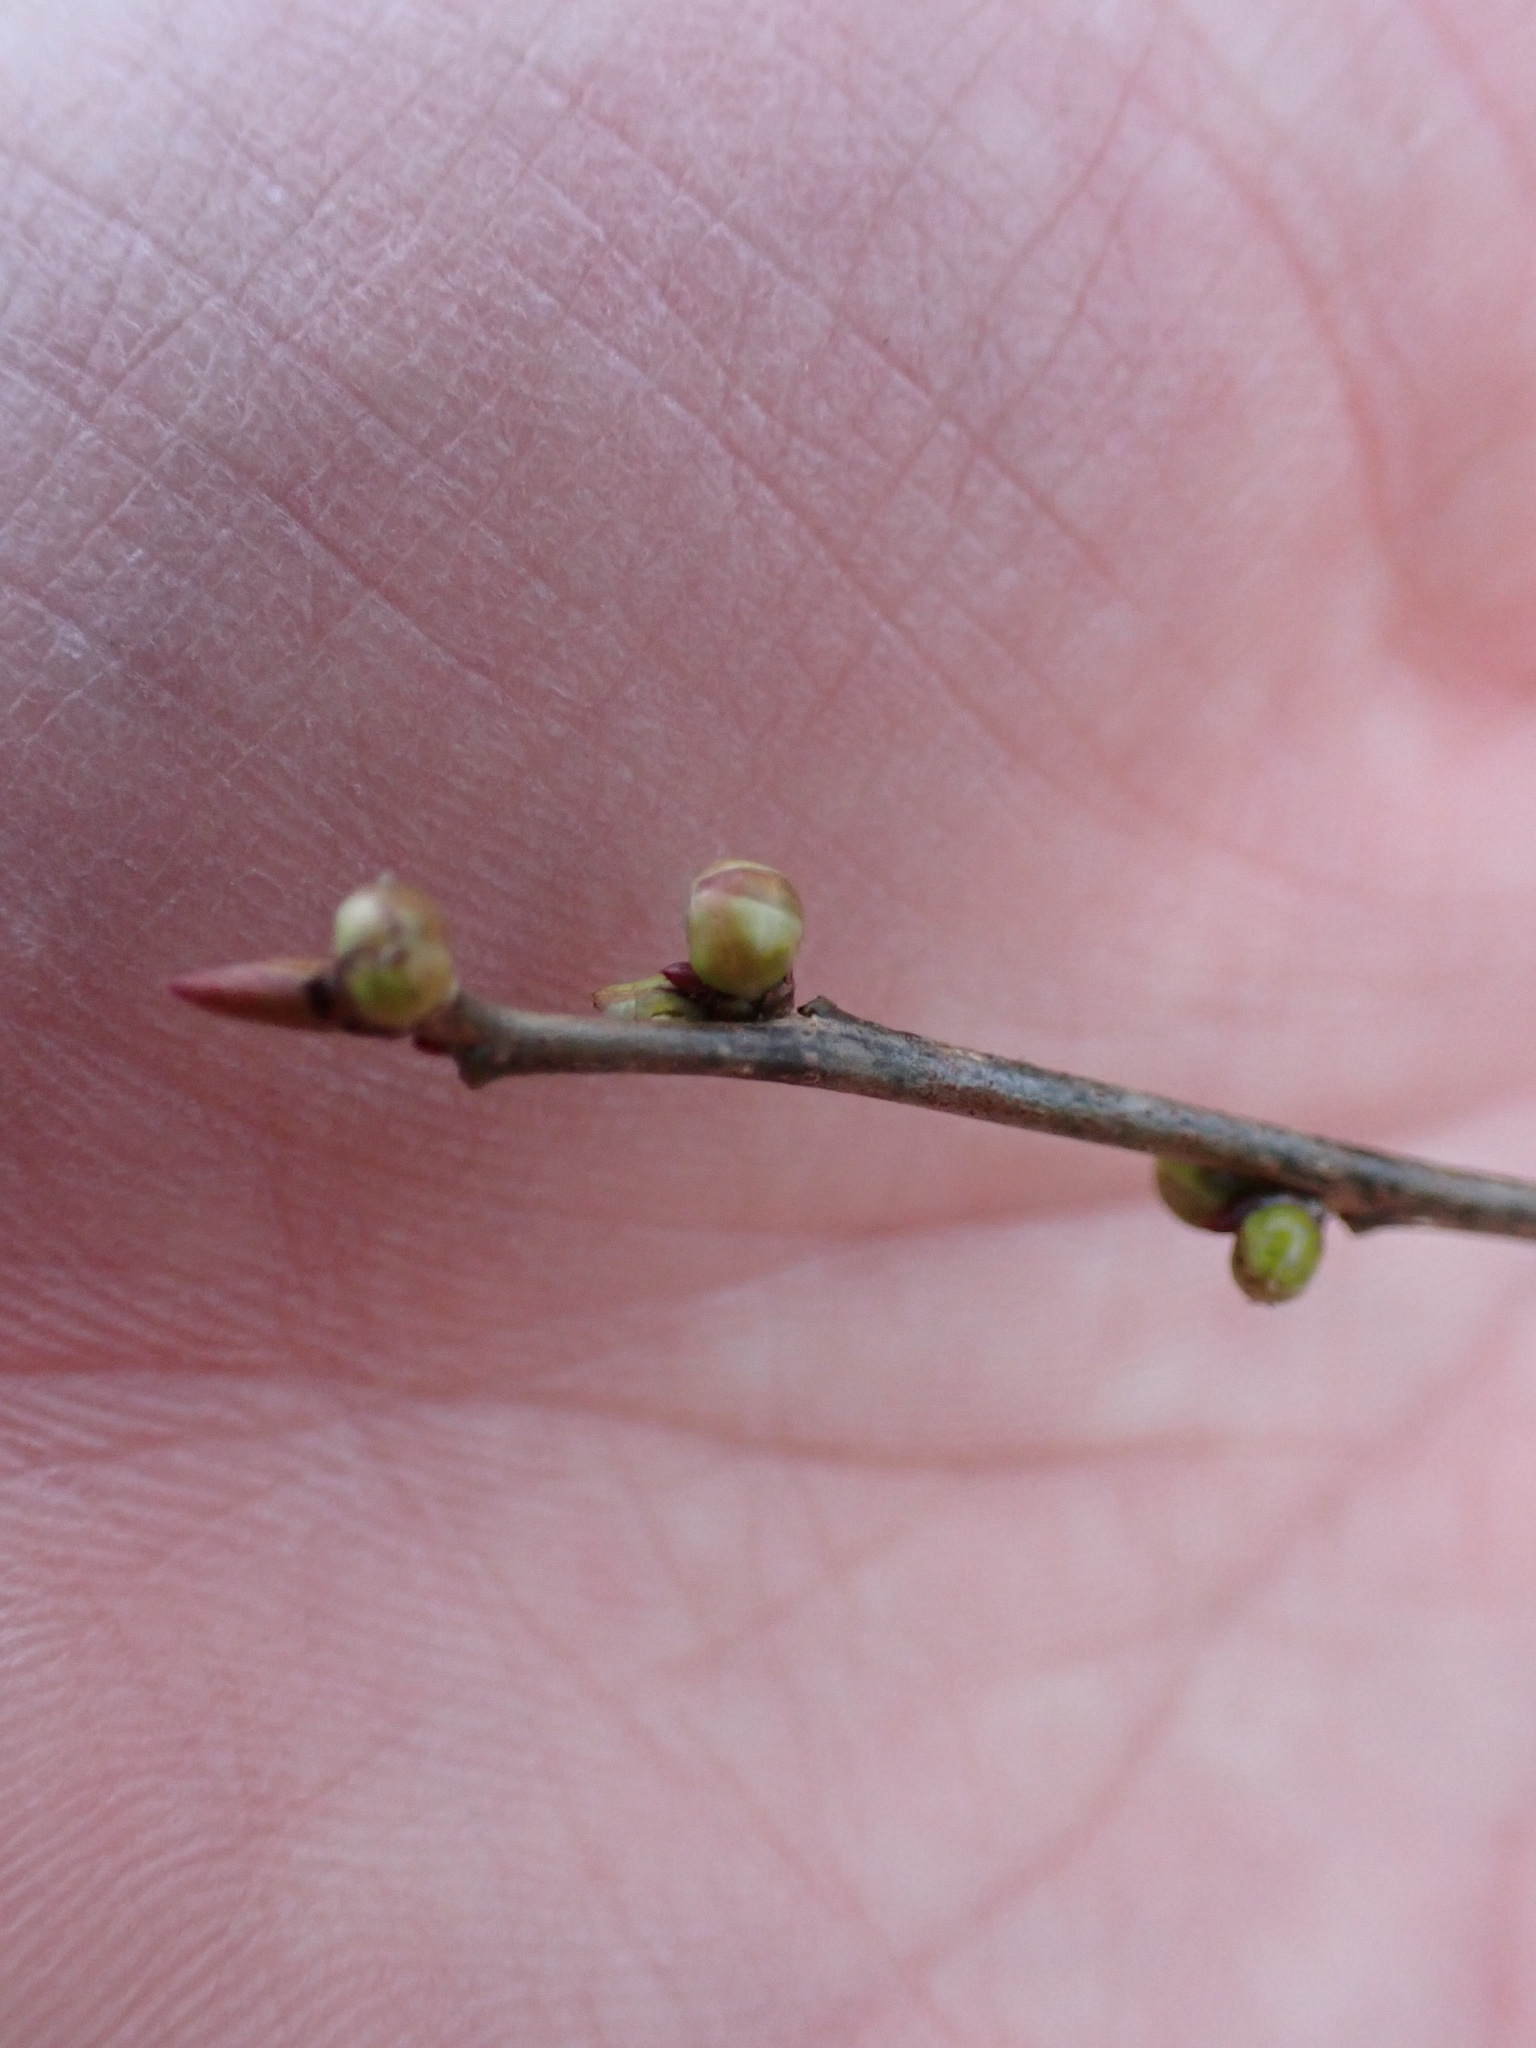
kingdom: Plantae
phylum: Tracheophyta
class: Magnoliopsida
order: Laurales
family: Lauraceae
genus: Lindera
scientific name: Lindera benzoin
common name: Spicebush
